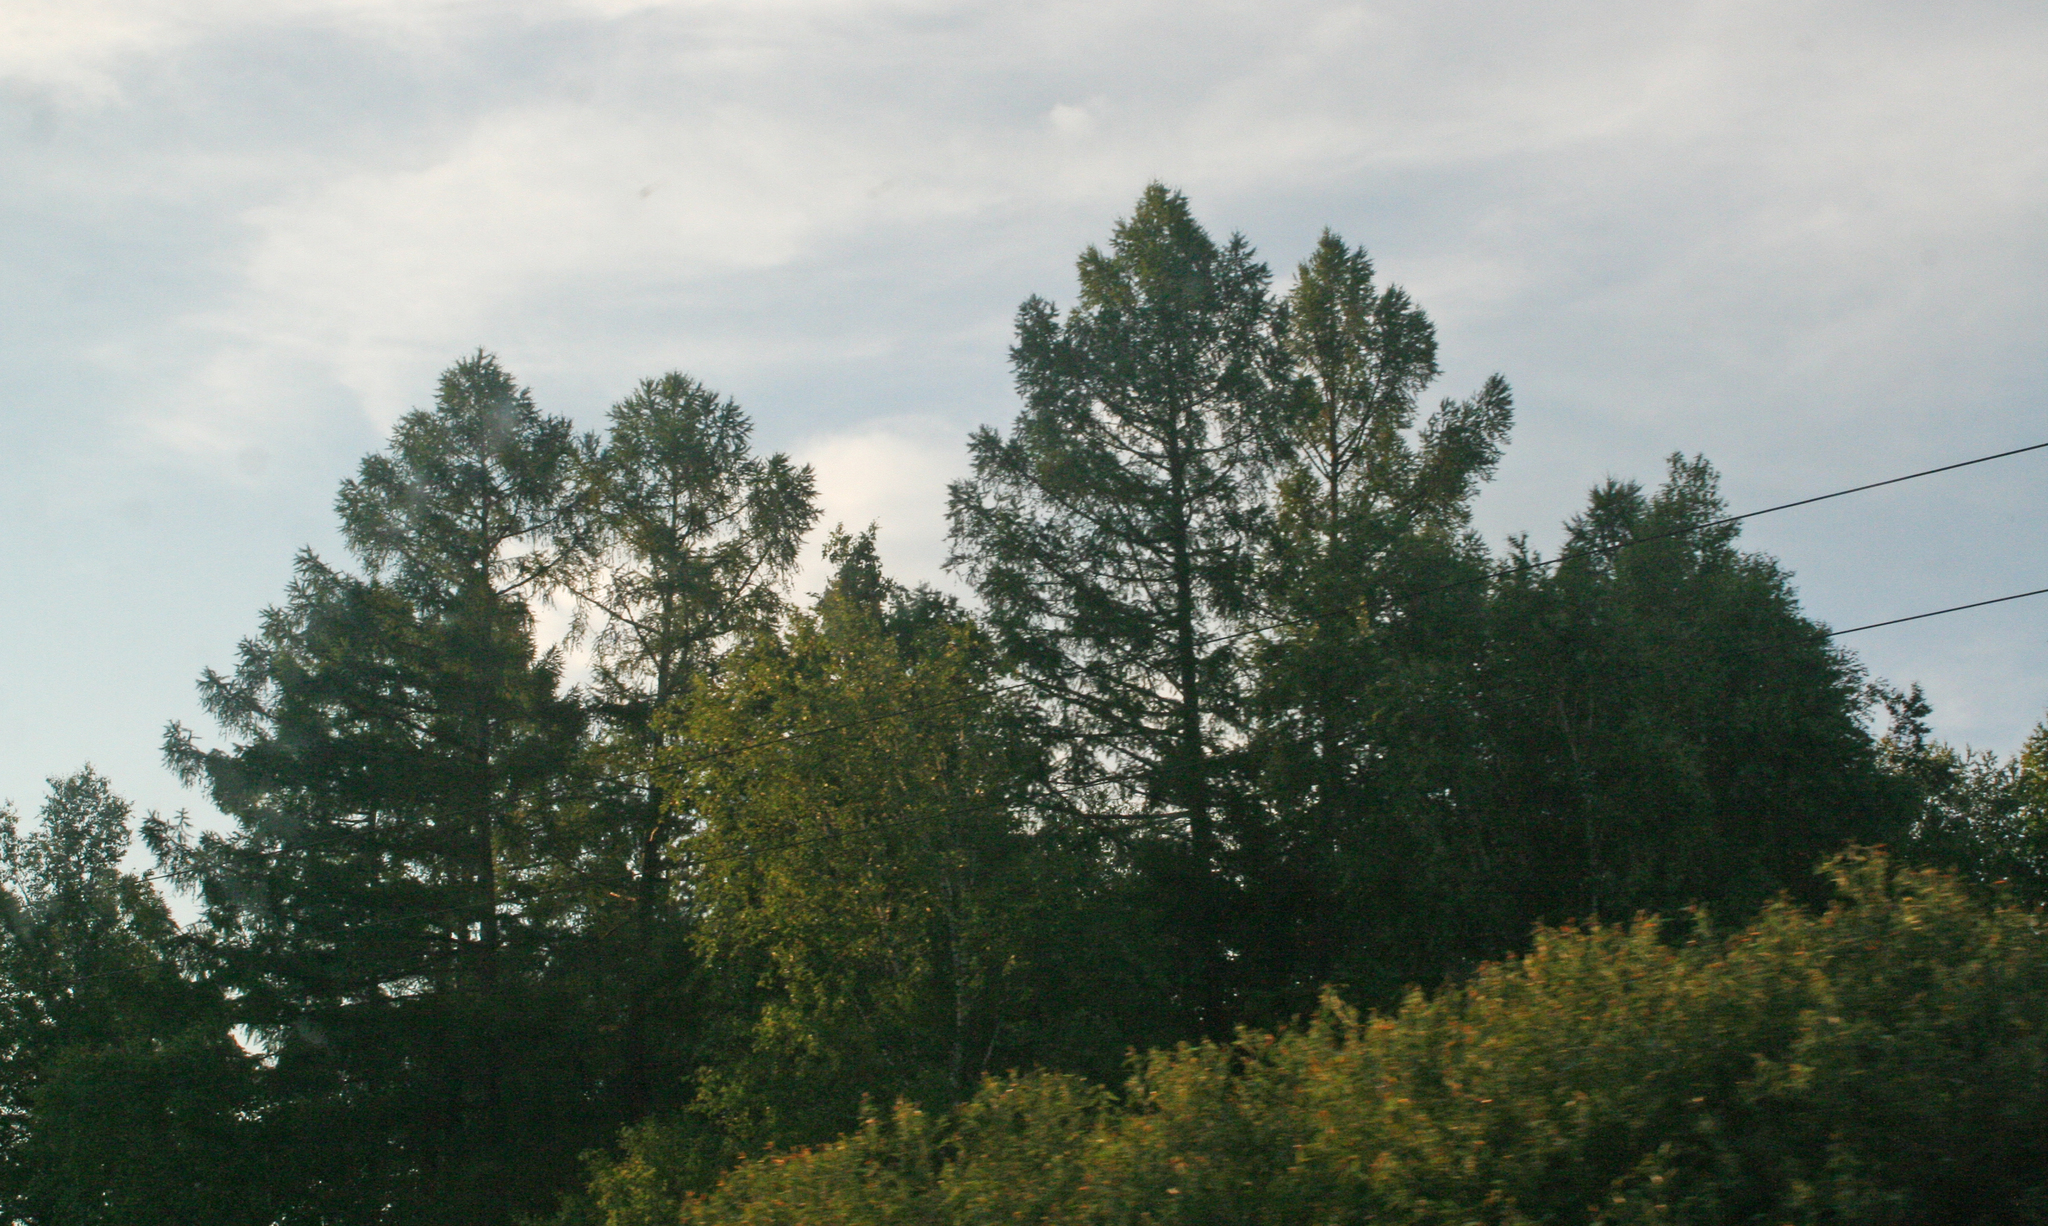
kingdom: Plantae
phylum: Tracheophyta
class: Pinopsida
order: Pinales
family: Pinaceae
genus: Larix
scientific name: Larix sibirica
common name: Siberian larch
